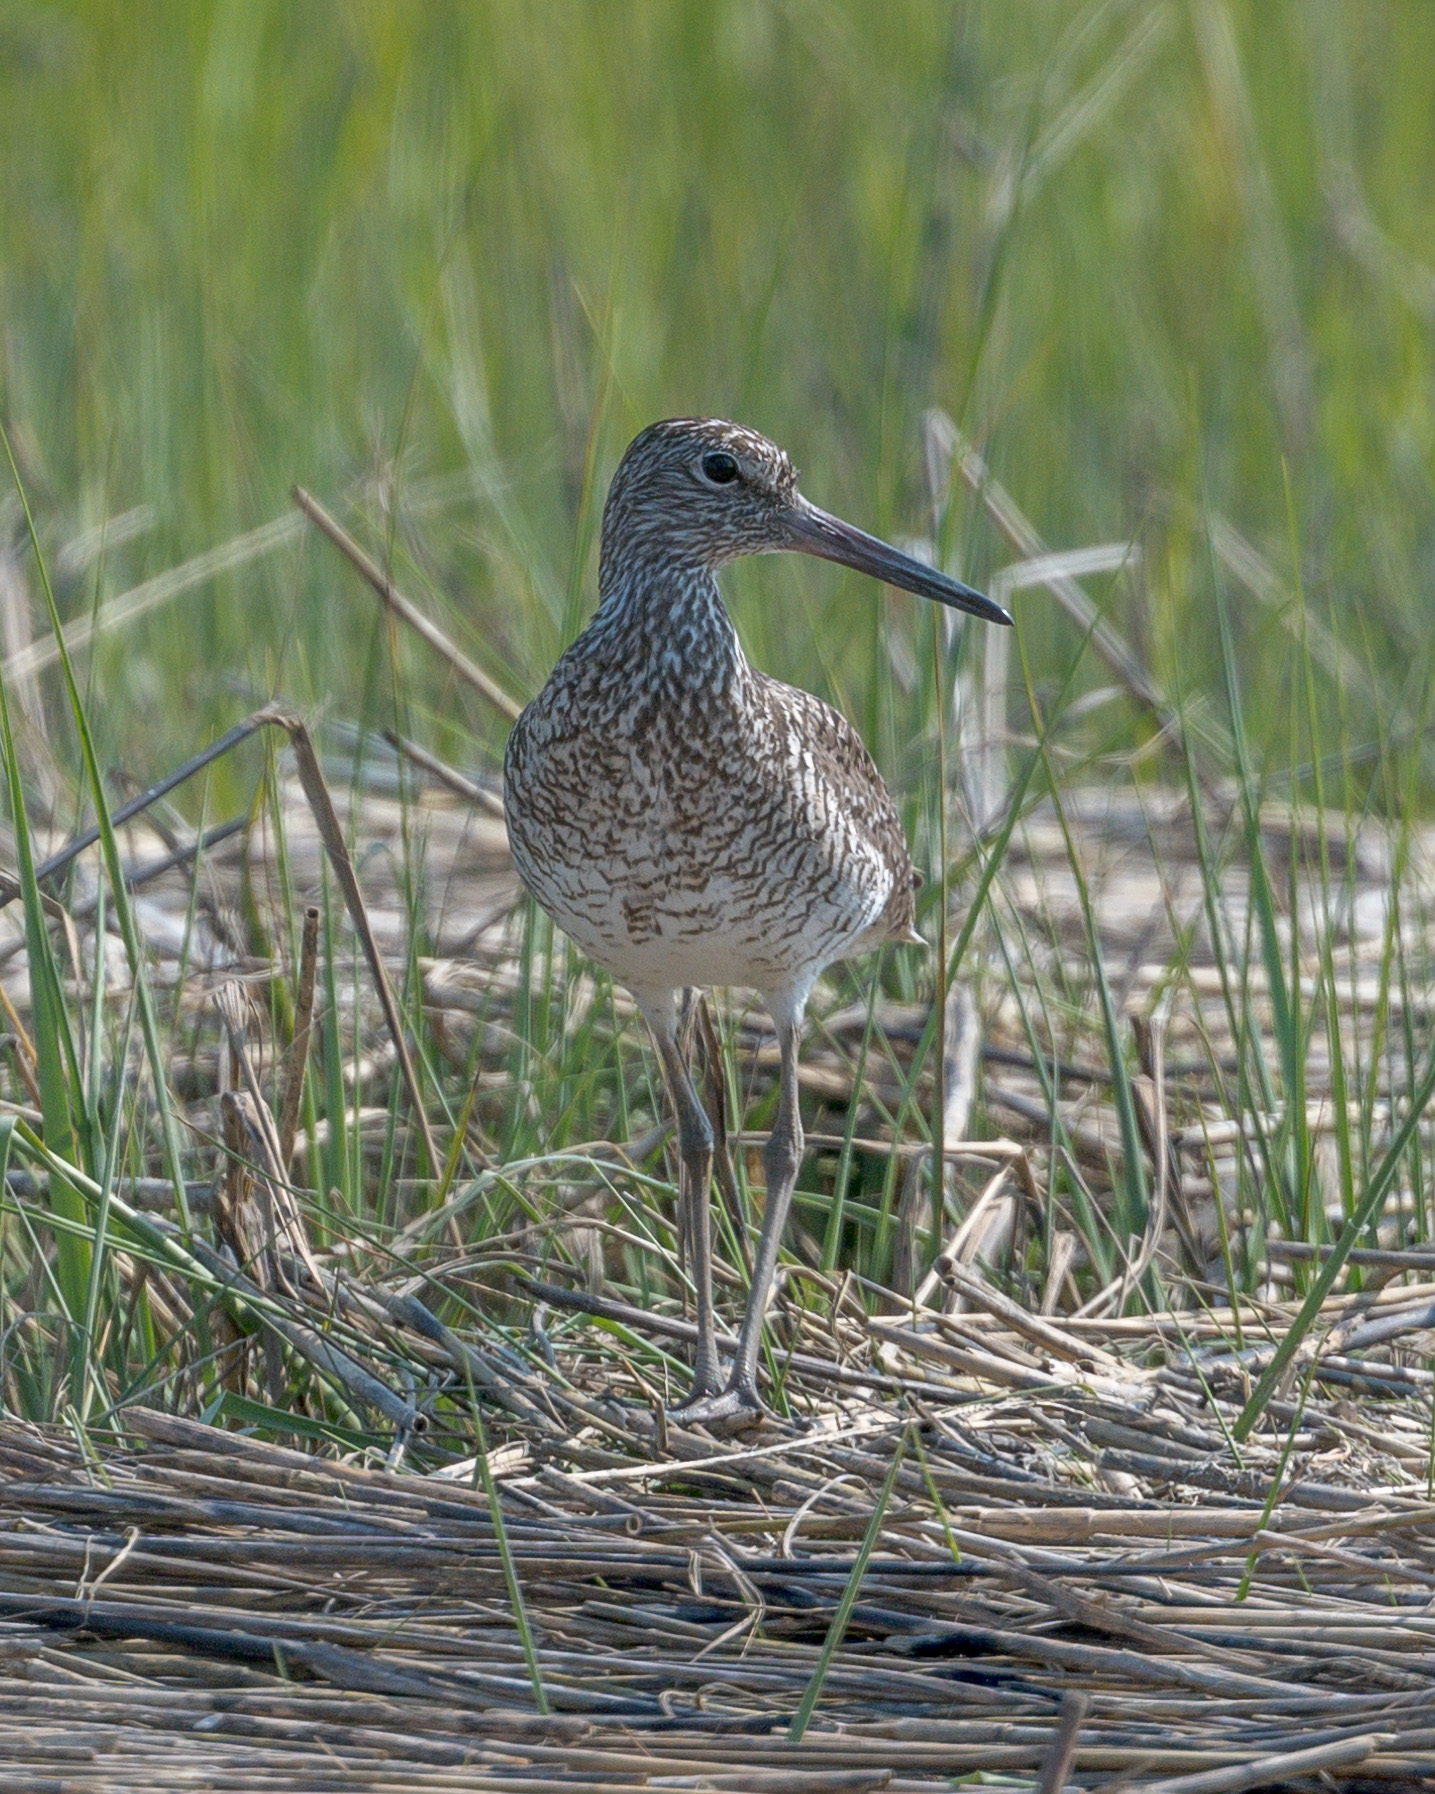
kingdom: Animalia
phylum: Chordata
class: Aves
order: Charadriiformes
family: Scolopacidae
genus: Tringa
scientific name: Tringa semipalmata
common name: Willet
